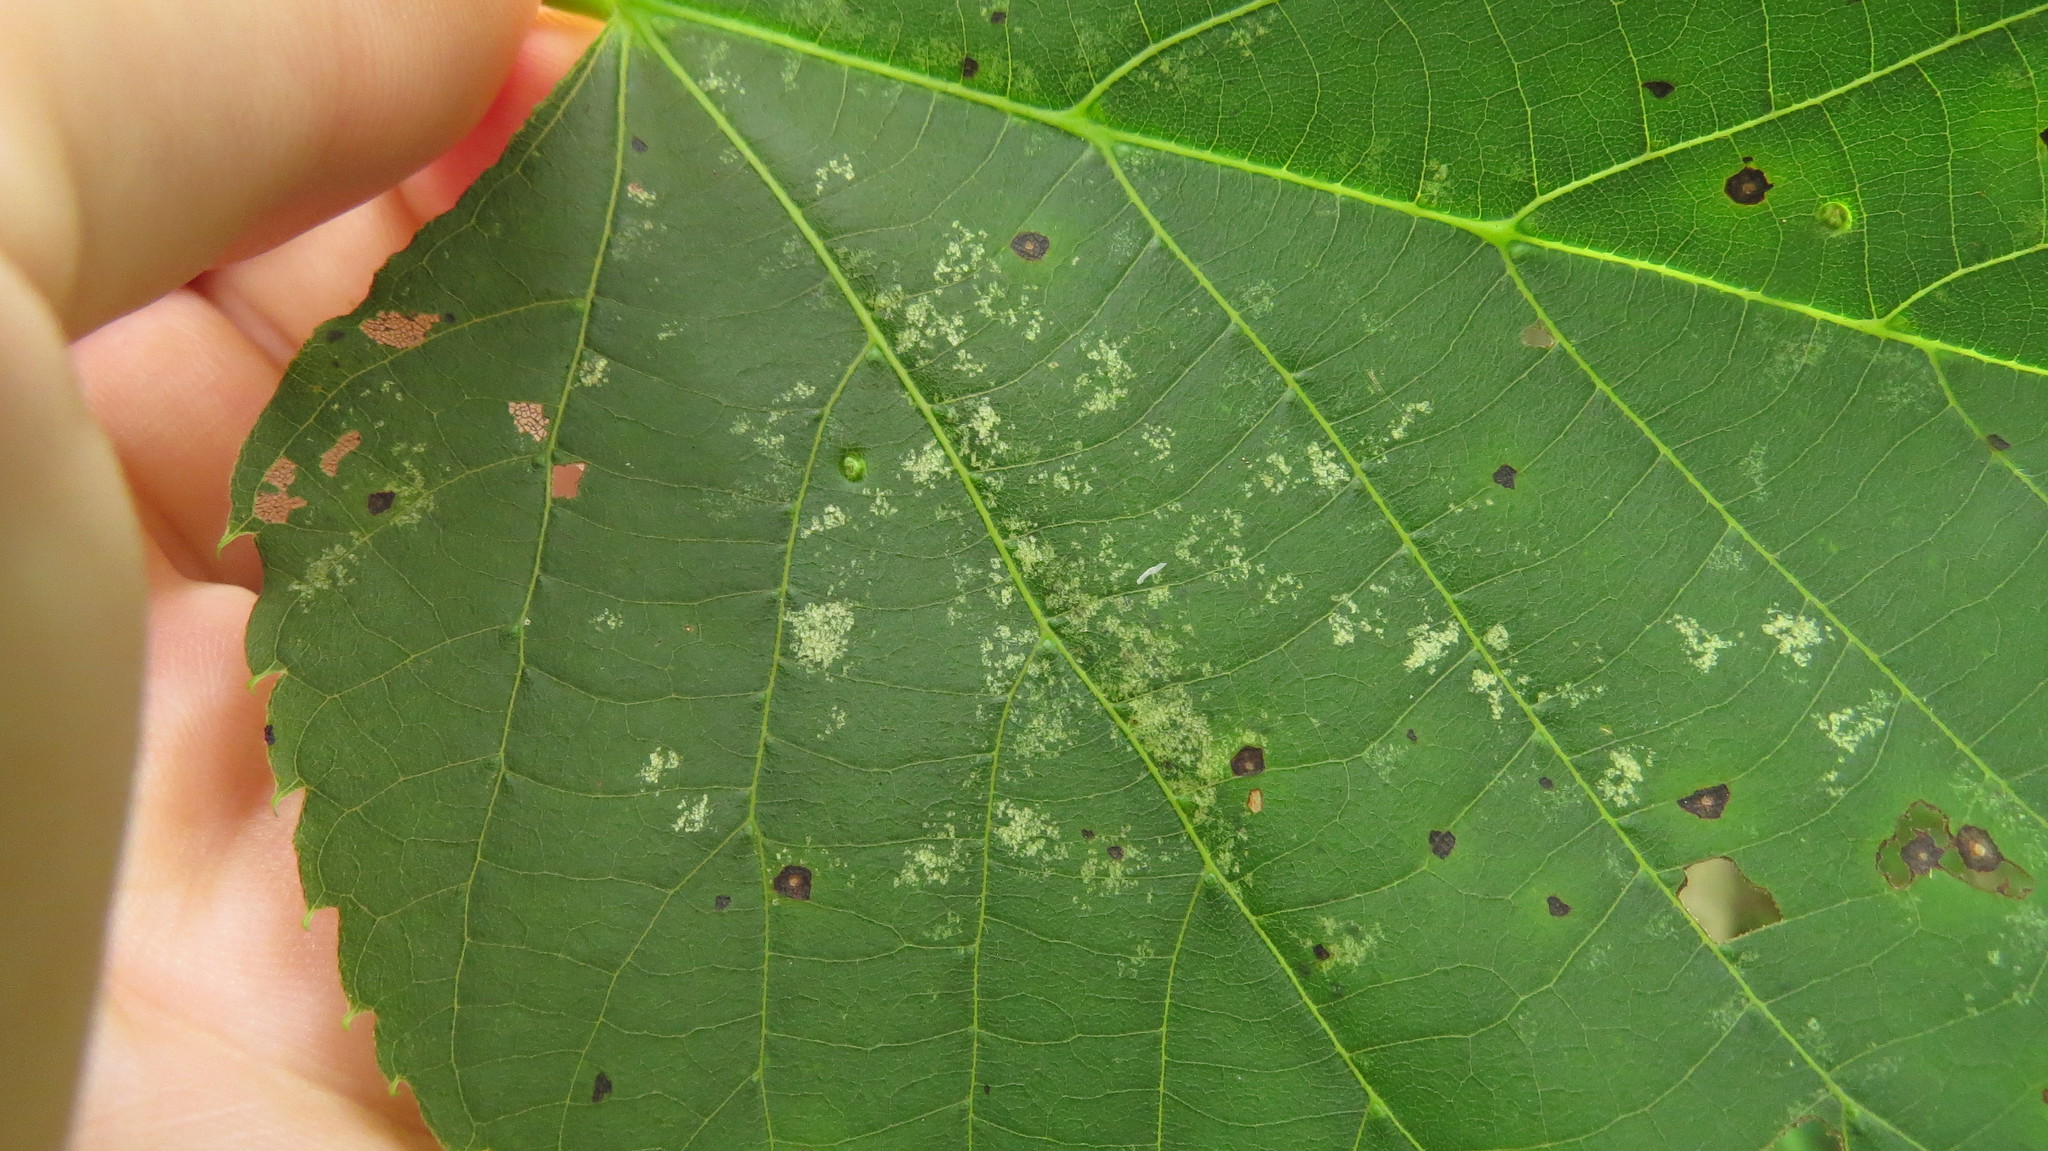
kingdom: Animalia
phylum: Arthropoda
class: Insecta
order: Hemiptera
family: Tingidae
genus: Gargaphia
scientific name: Gargaphia tiliae
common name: Basswood lace bug
